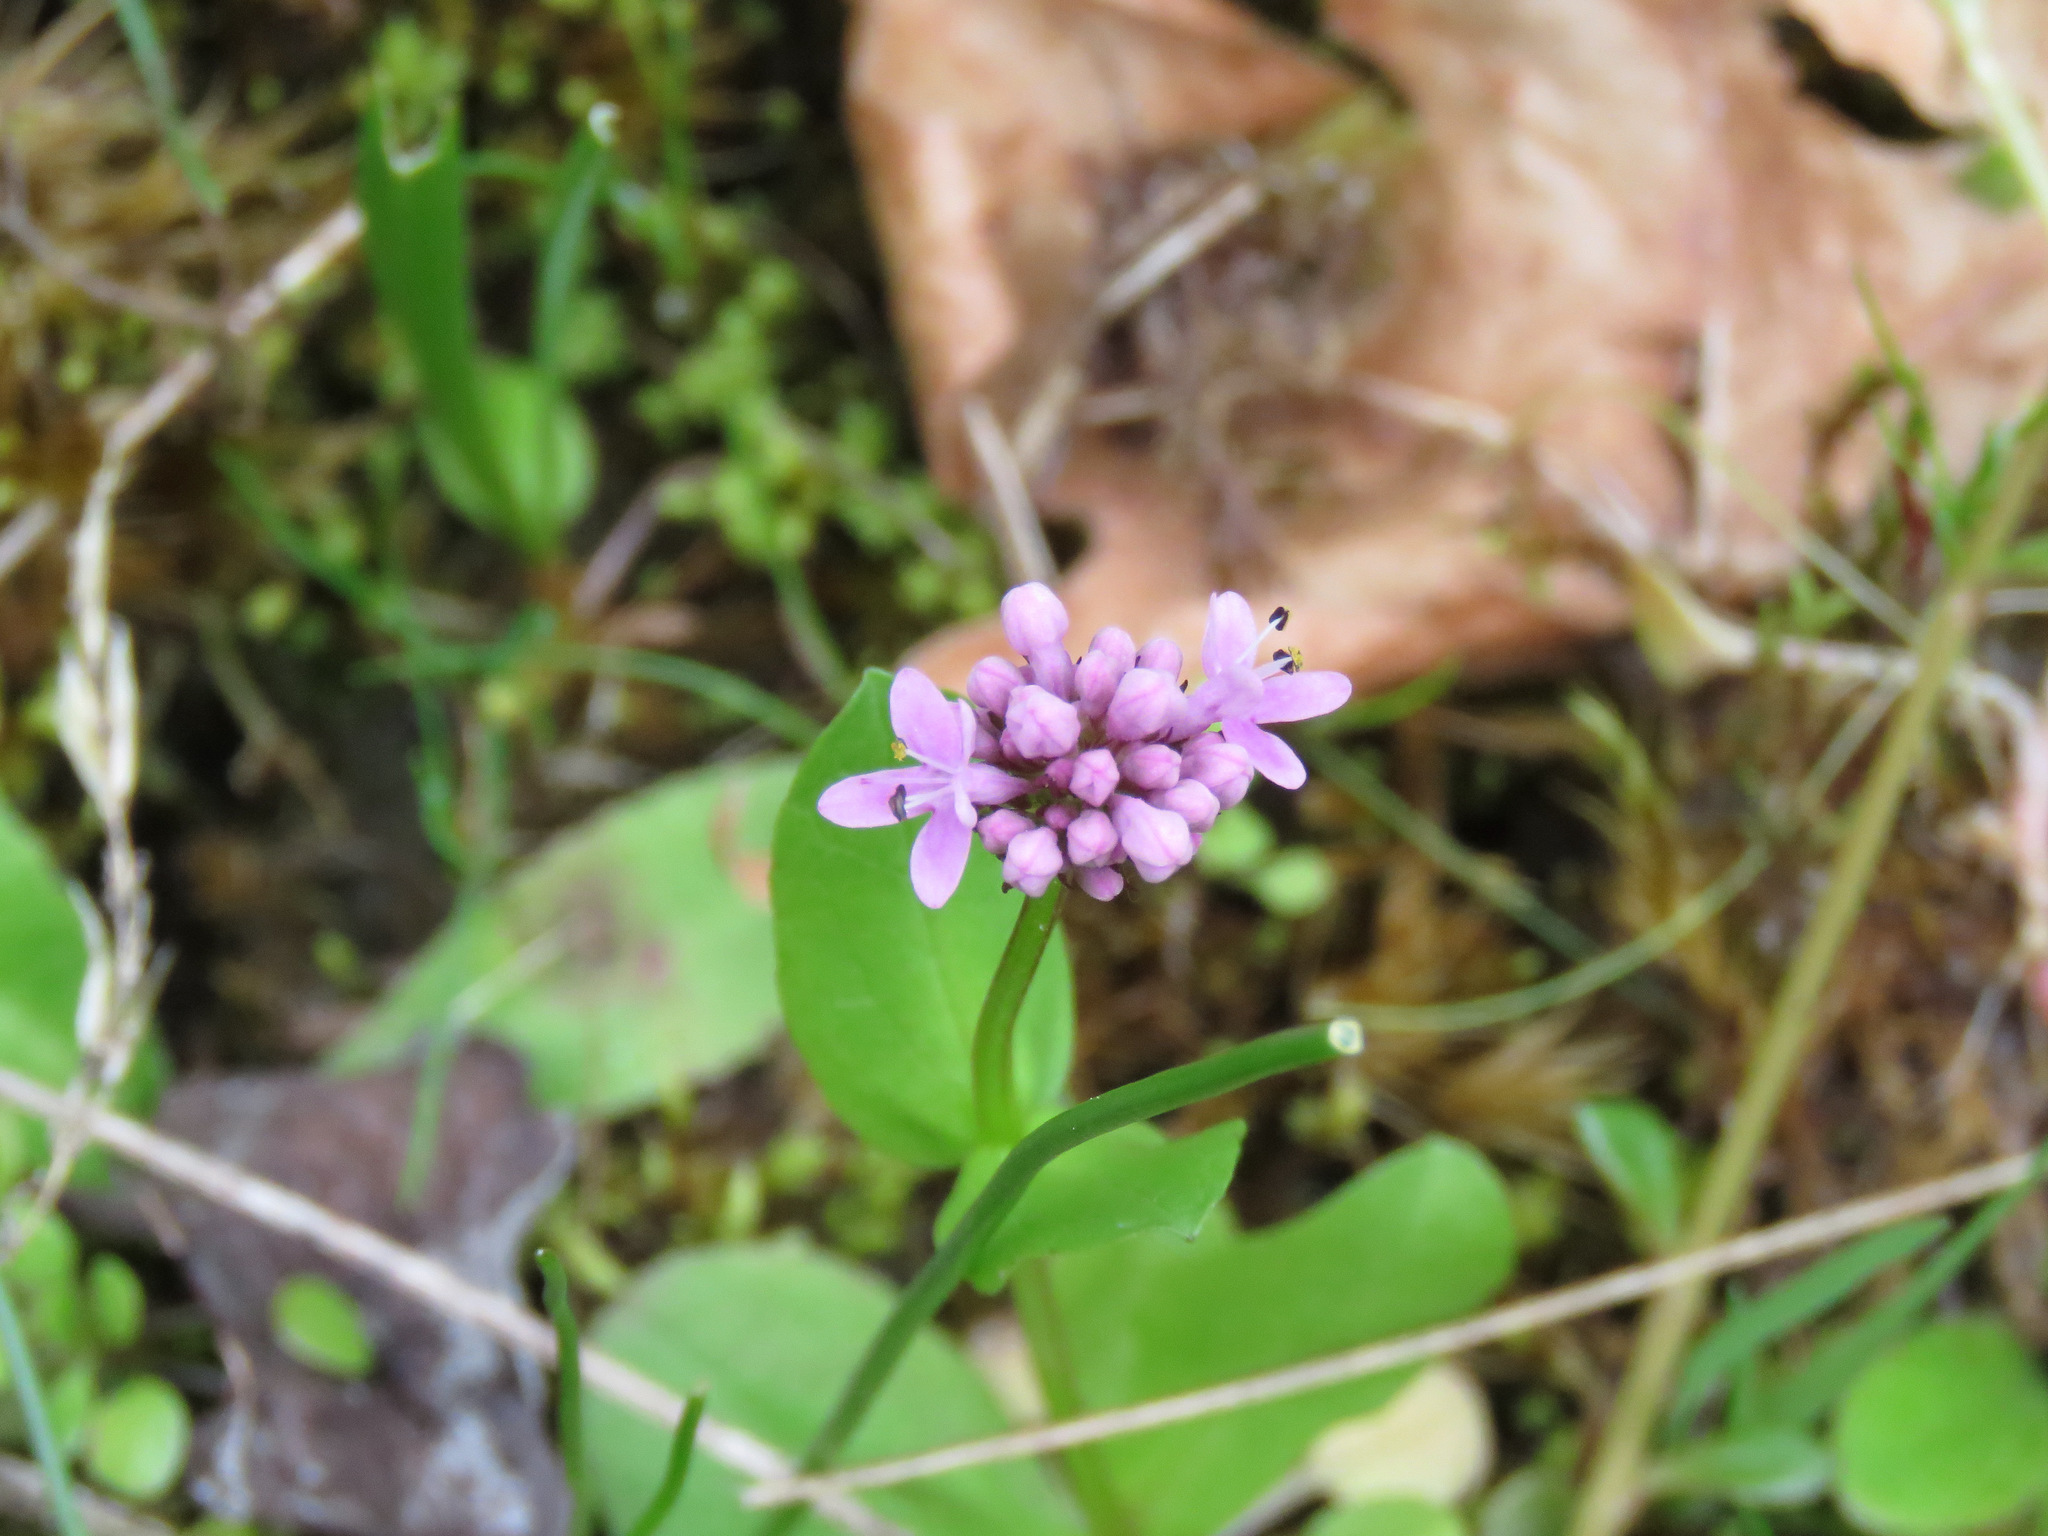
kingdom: Plantae
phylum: Tracheophyta
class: Magnoliopsida
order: Dipsacales
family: Caprifoliaceae
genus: Plectritis
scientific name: Plectritis congesta
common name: Pink plectritis
